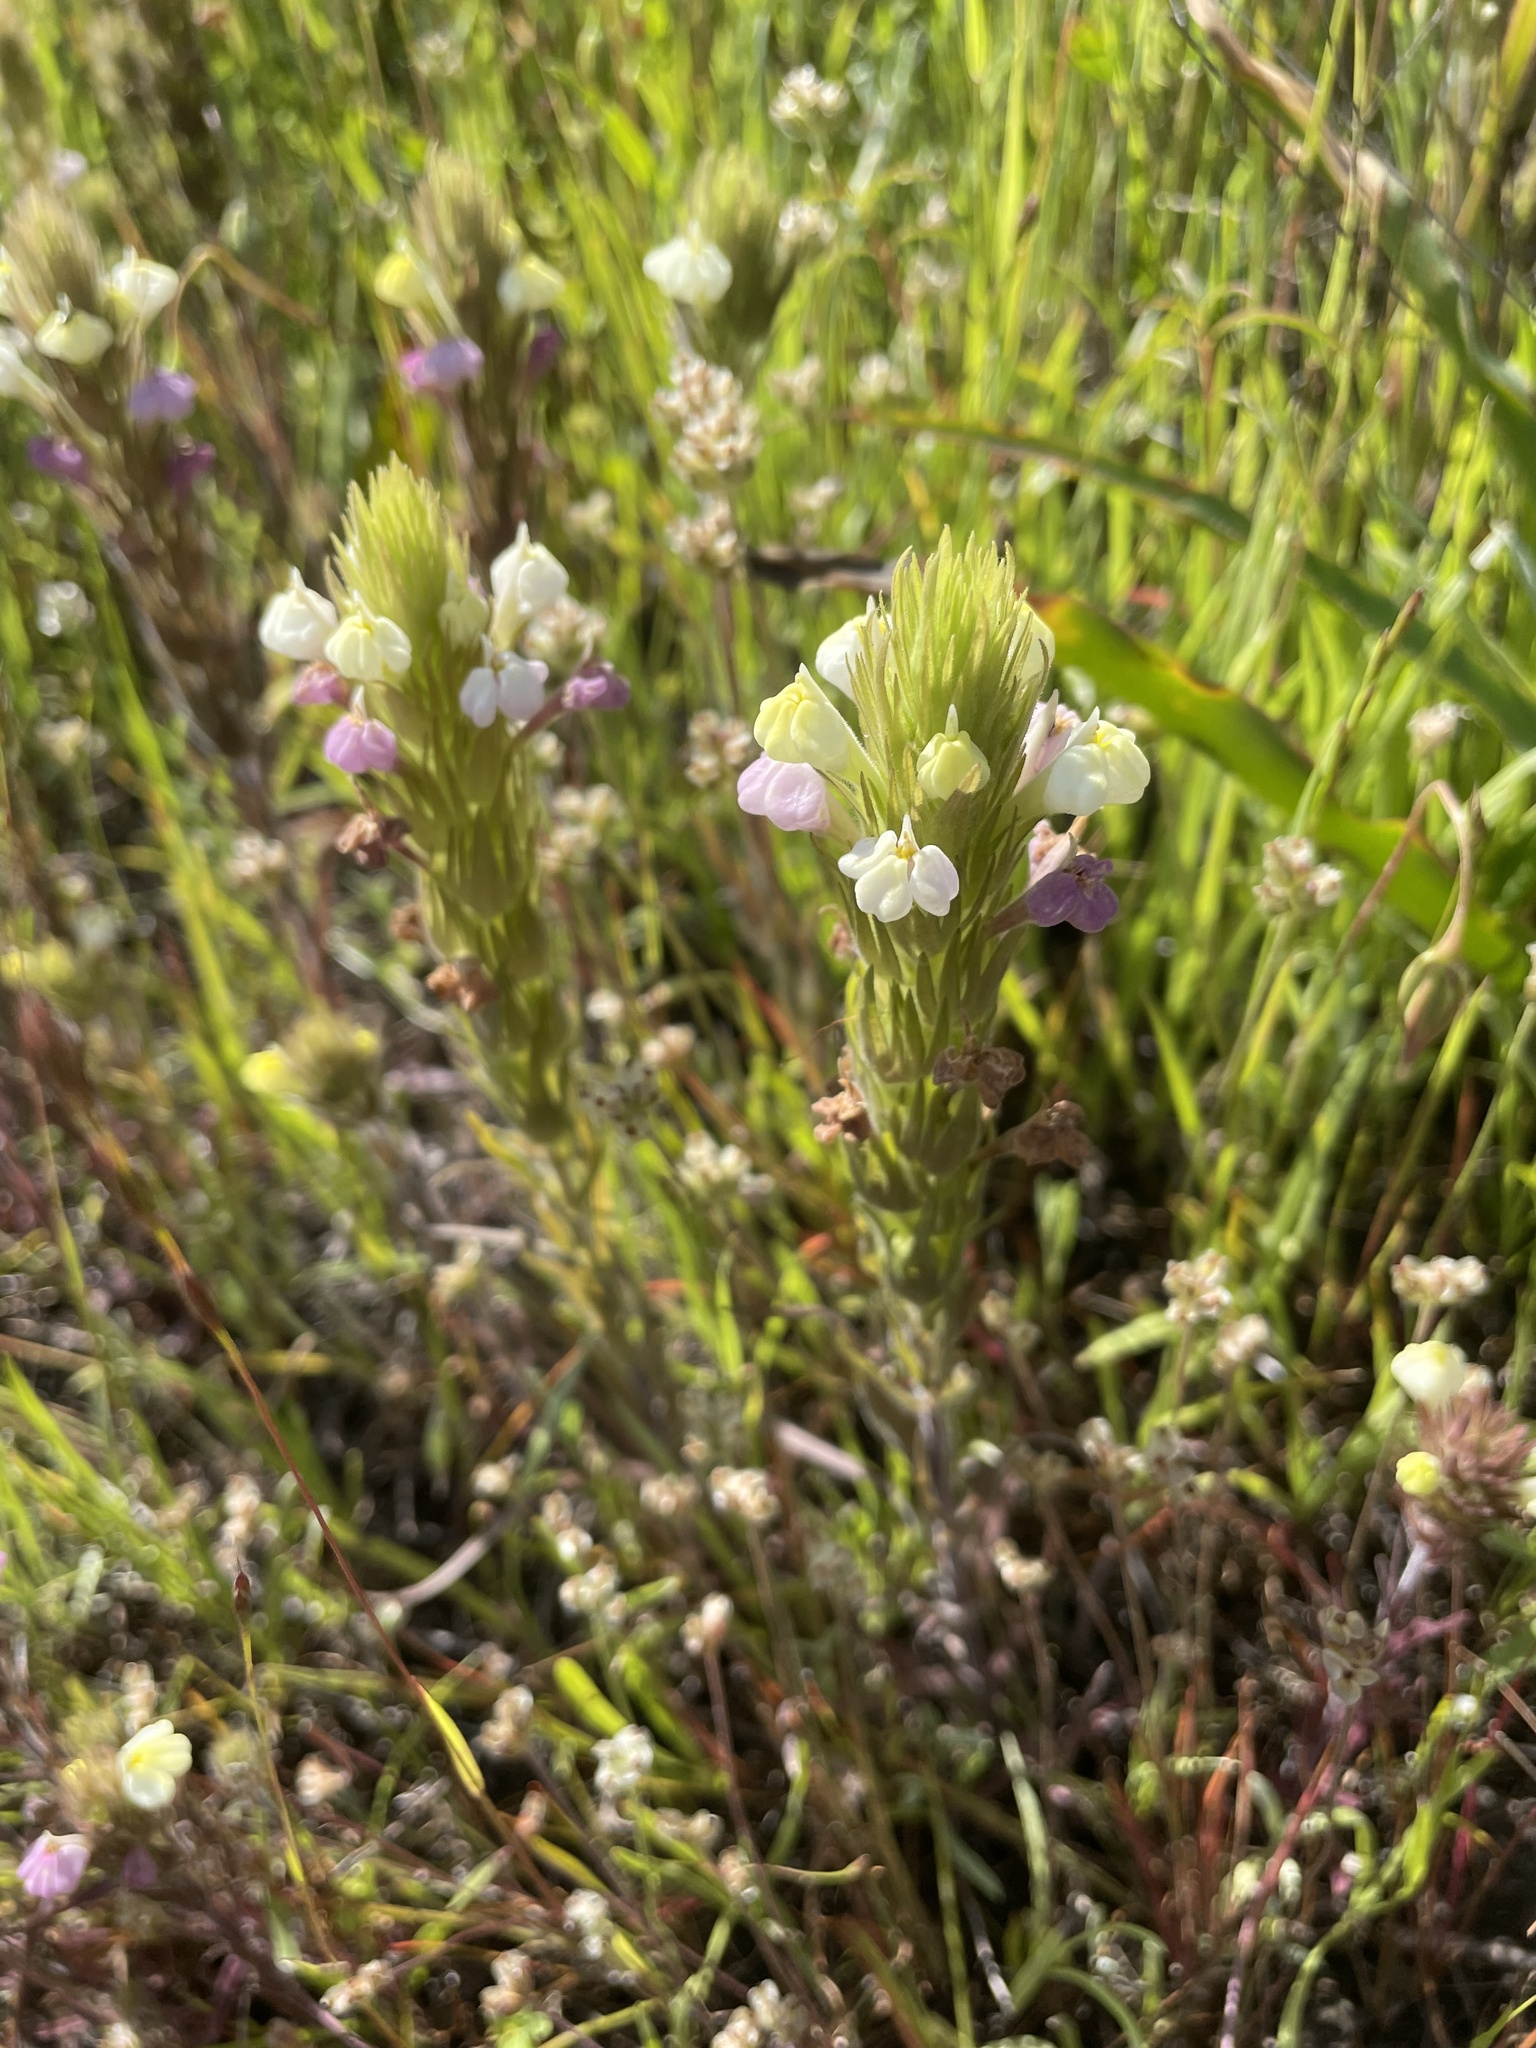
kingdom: Plantae
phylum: Tracheophyta
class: Magnoliopsida
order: Lamiales
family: Orobanchaceae
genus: Castilleja
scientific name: Castilleja rubicundula
